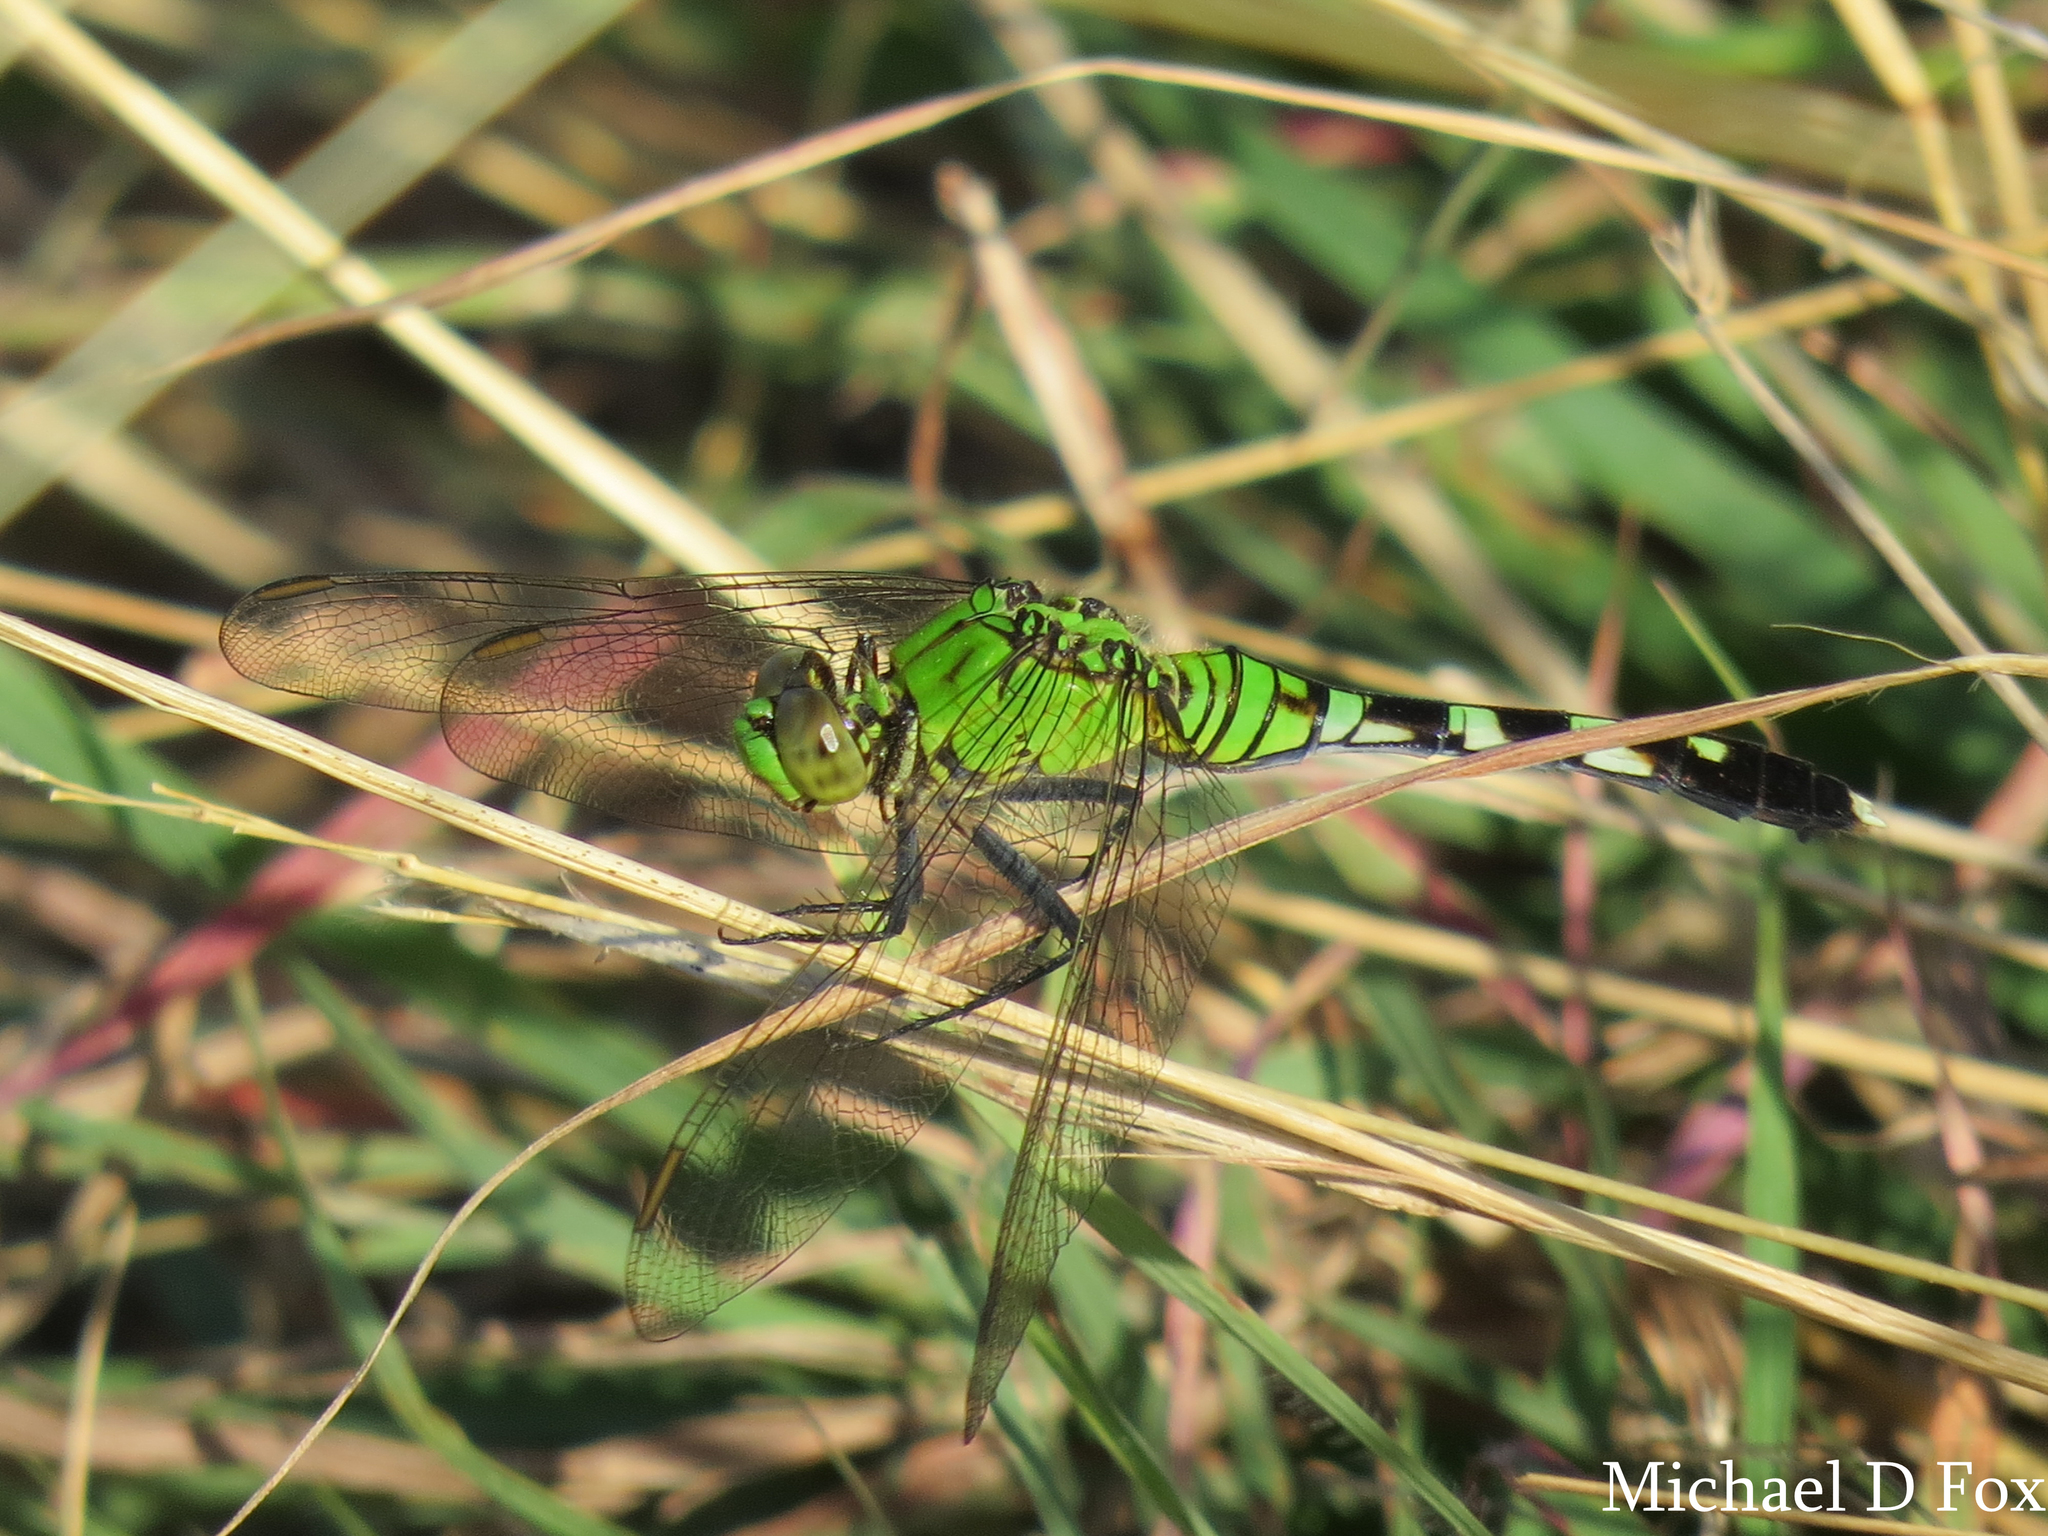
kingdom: Animalia
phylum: Arthropoda
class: Insecta
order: Odonata
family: Libellulidae
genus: Erythemis
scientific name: Erythemis simplicicollis
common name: Eastern pondhawk
